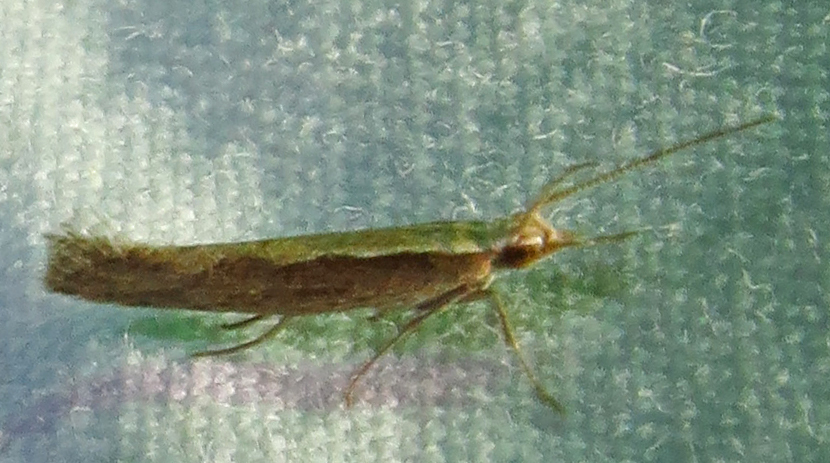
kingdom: Animalia
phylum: Arthropoda
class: Insecta
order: Lepidoptera
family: Plutellidae
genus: Plutella
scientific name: Plutella xylostella
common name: Diamond-back moth
